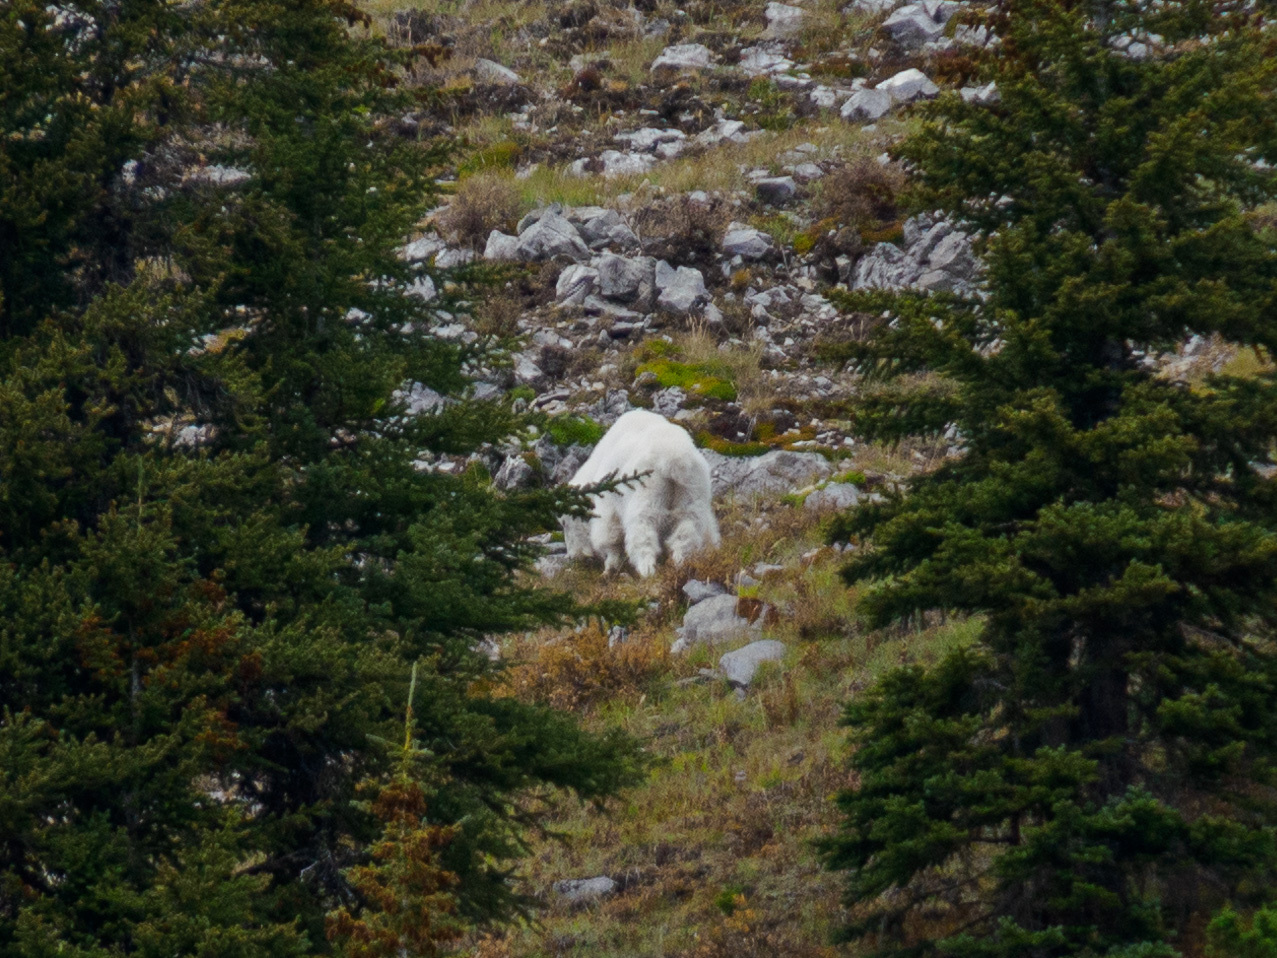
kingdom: Animalia
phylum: Chordata
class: Mammalia
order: Artiodactyla
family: Bovidae
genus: Oreamnos
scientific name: Oreamnos americanus
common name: Mountain goat
